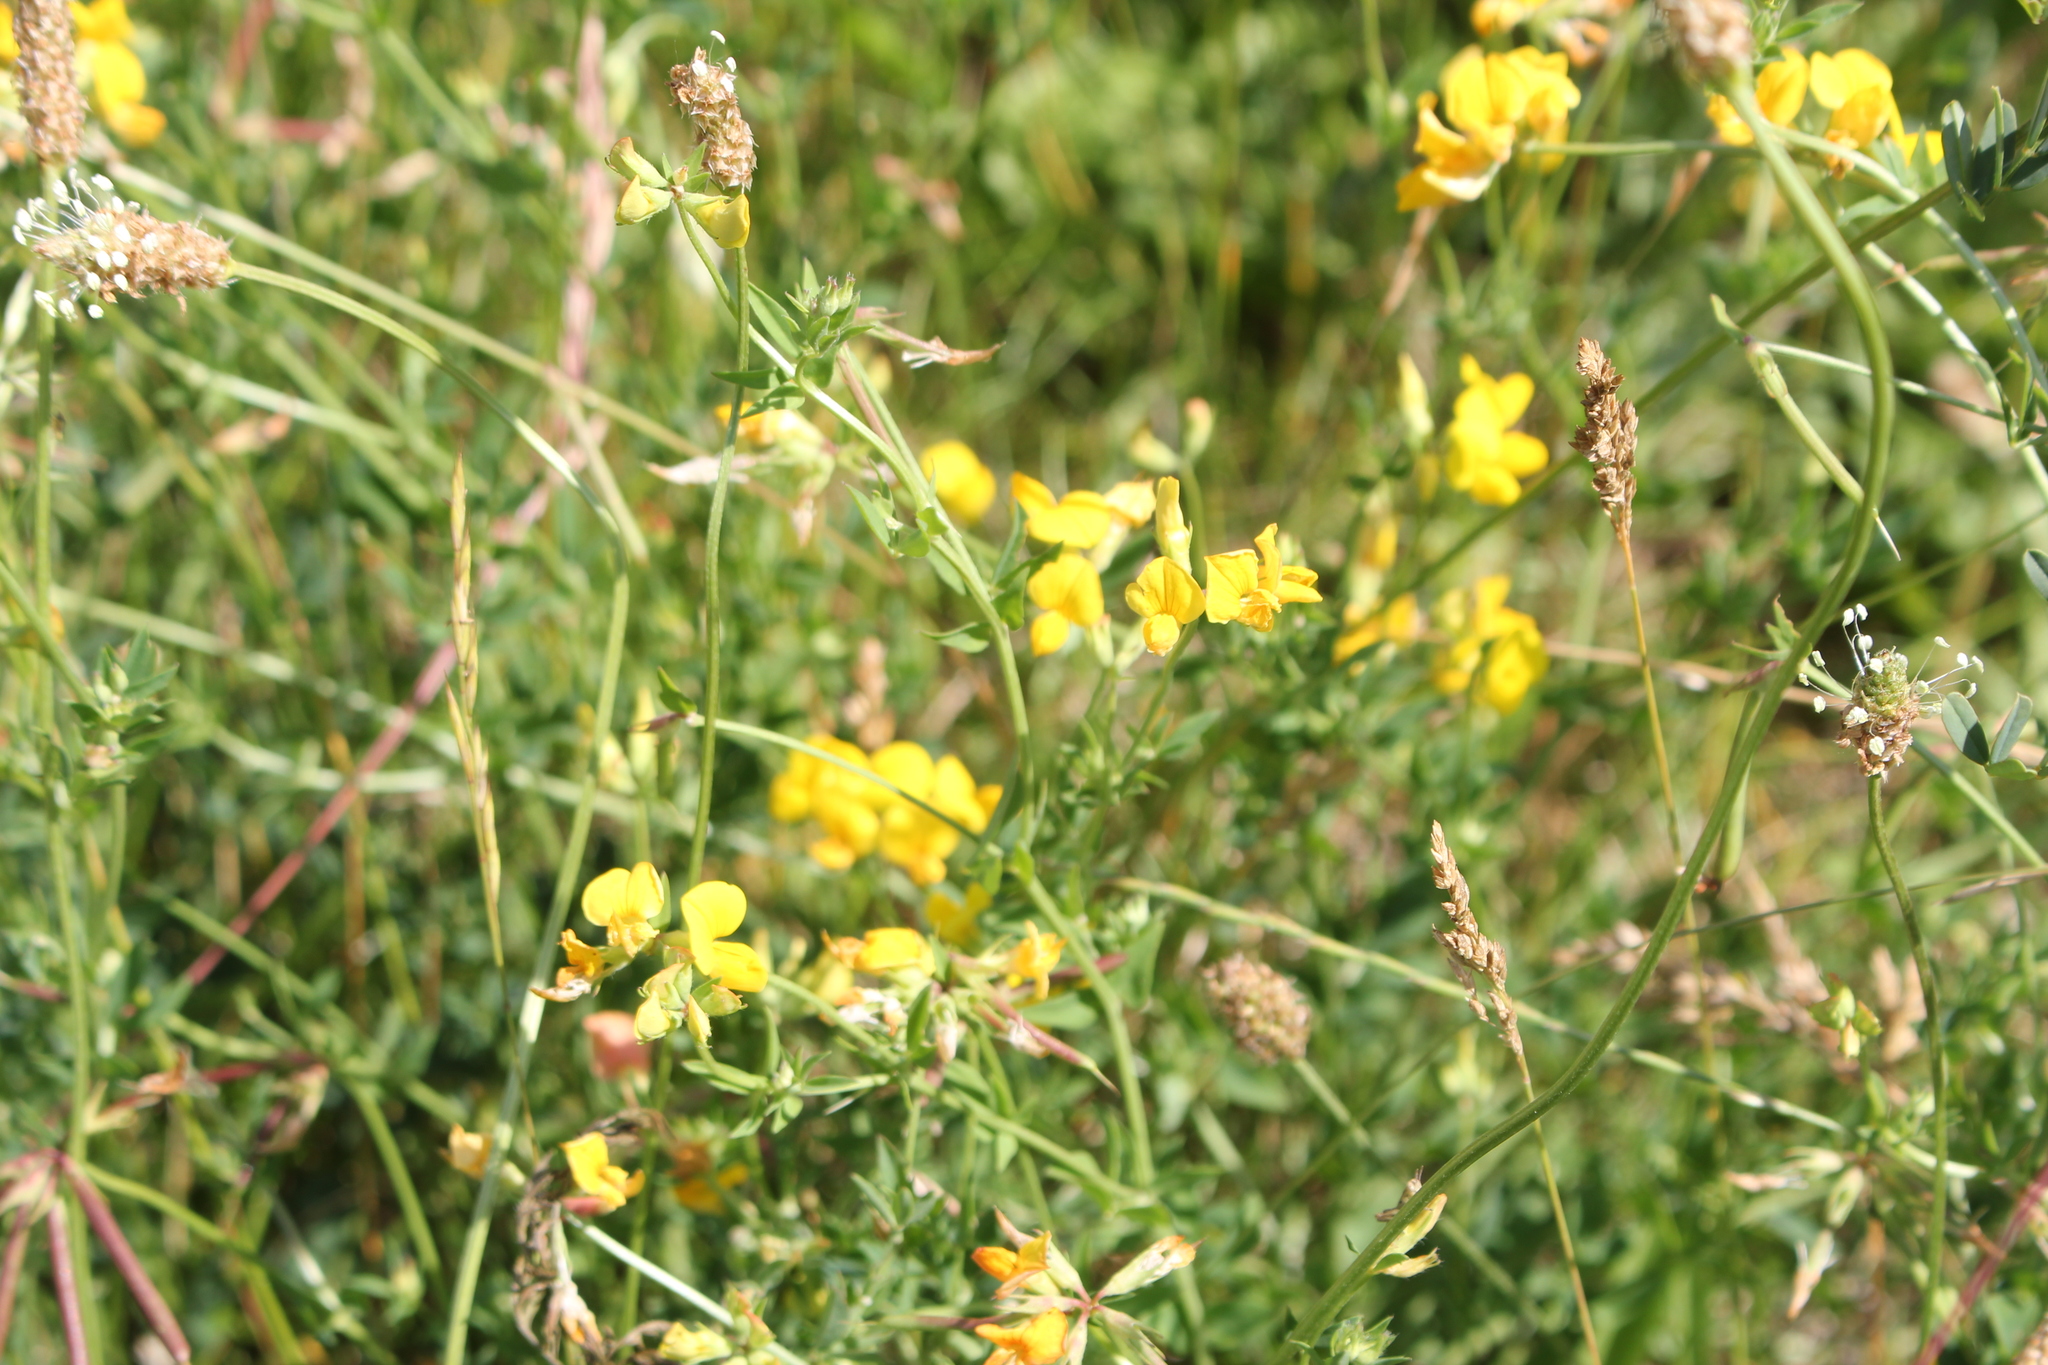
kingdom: Plantae
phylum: Tracheophyta
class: Magnoliopsida
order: Fabales
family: Fabaceae
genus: Lotus
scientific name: Lotus corniculatus
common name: Common bird's-foot-trefoil
